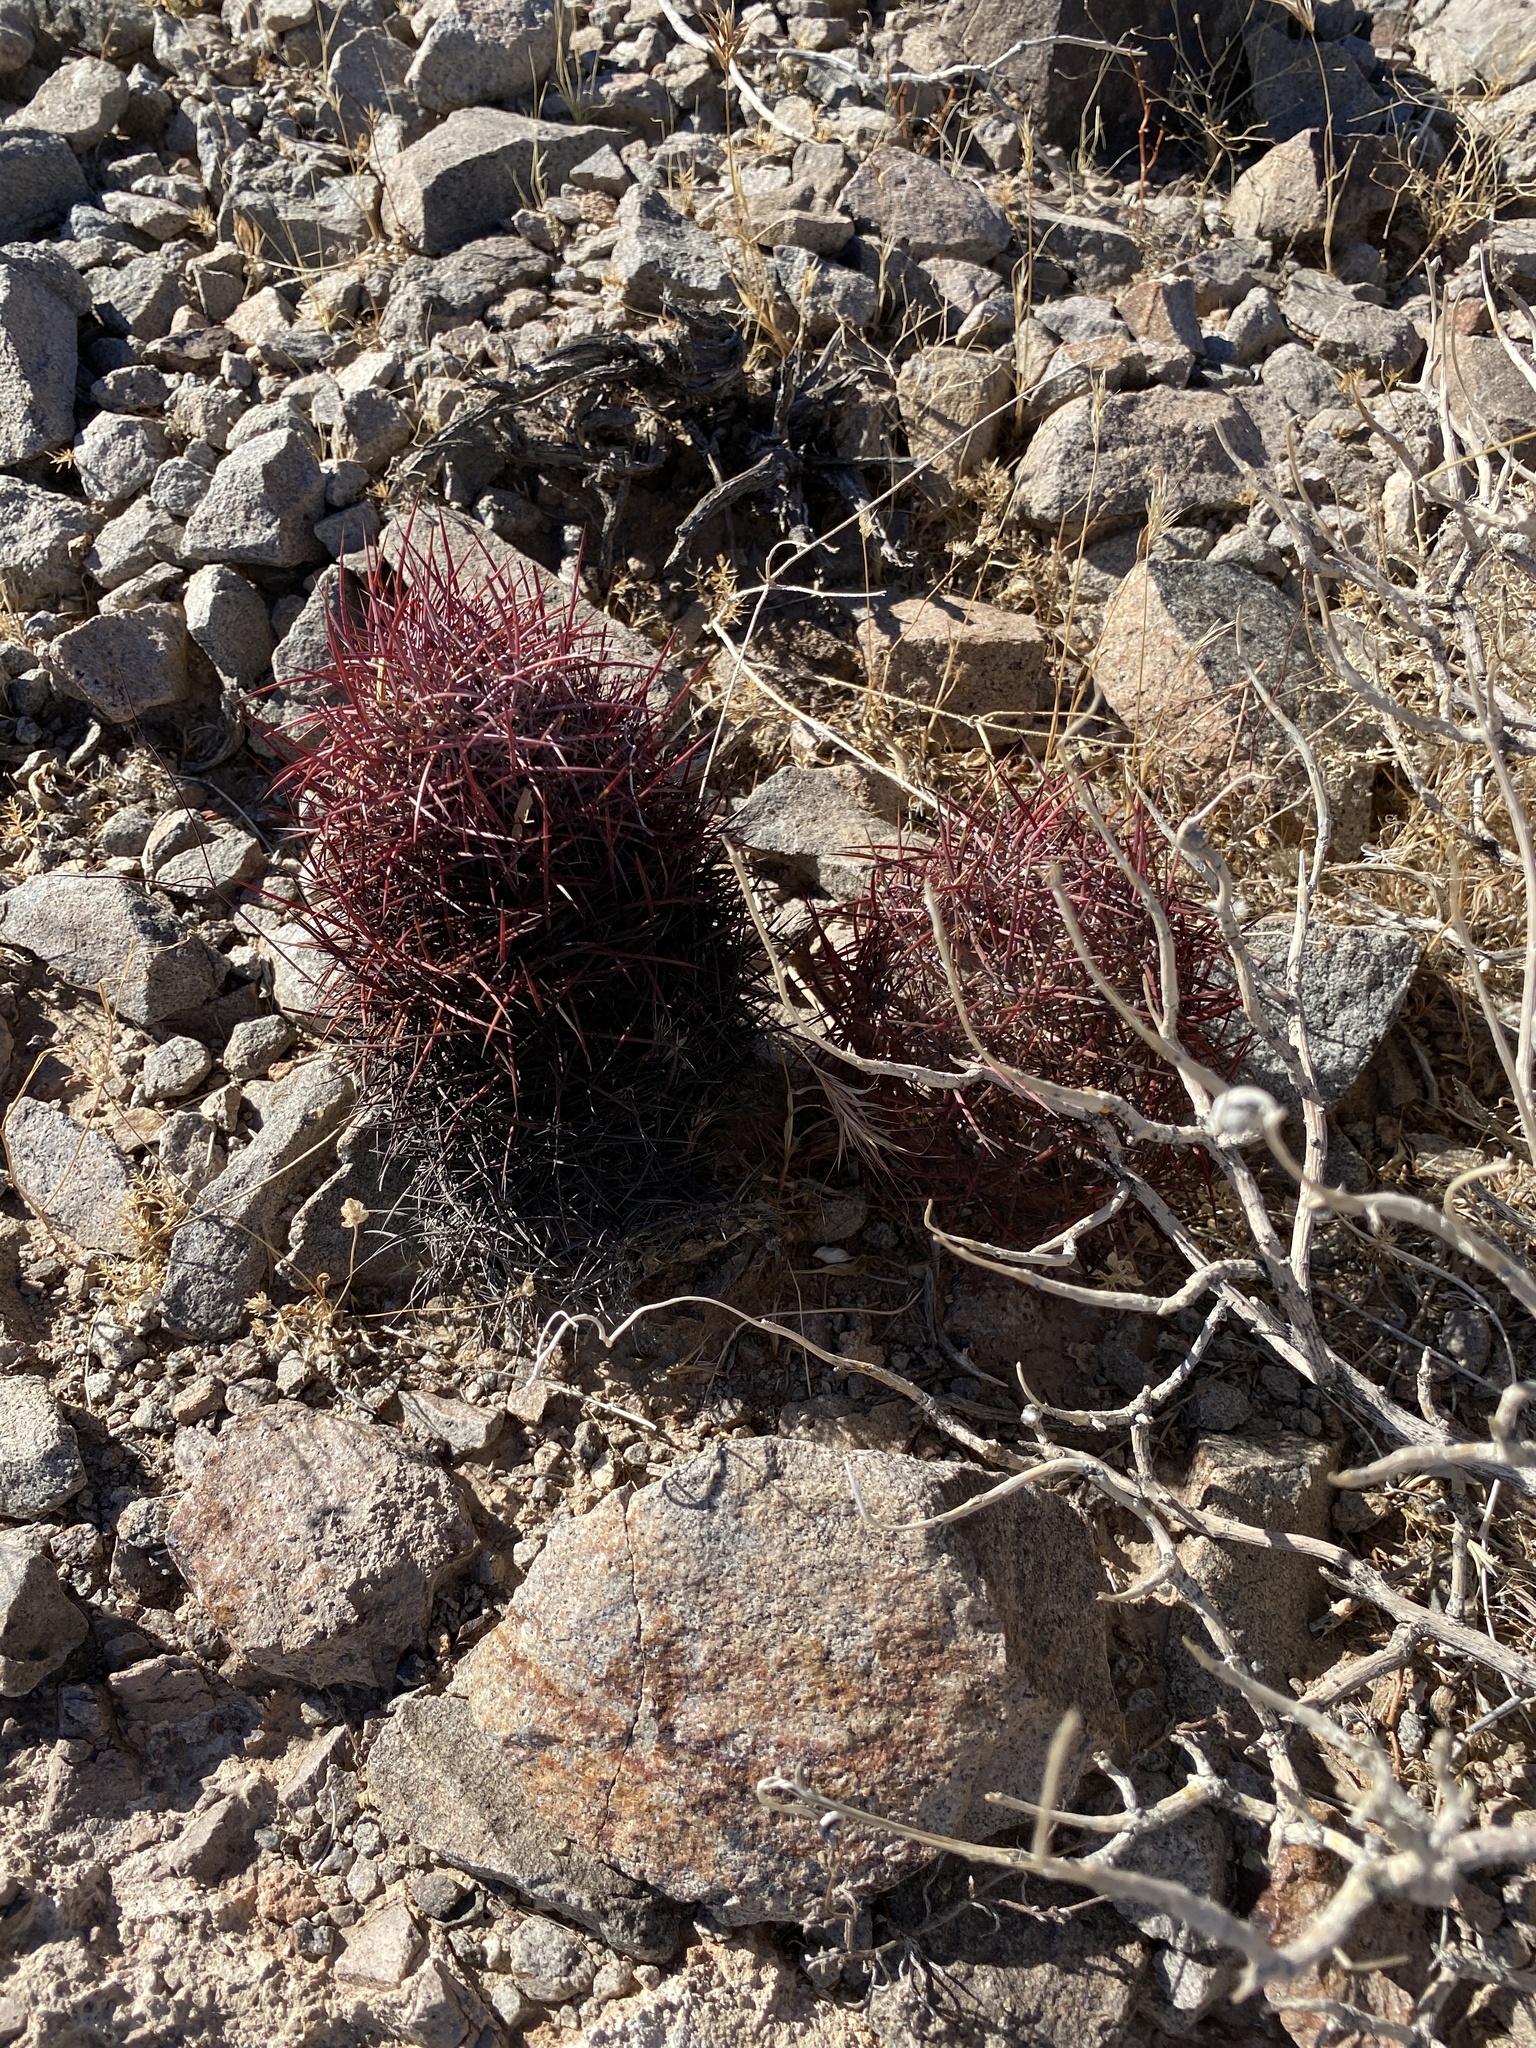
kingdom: Plantae
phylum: Tracheophyta
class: Magnoliopsida
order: Caryophyllales
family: Cactaceae
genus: Sclerocactus
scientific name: Sclerocactus johnsonii
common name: Eight-spine fishhook cactus
